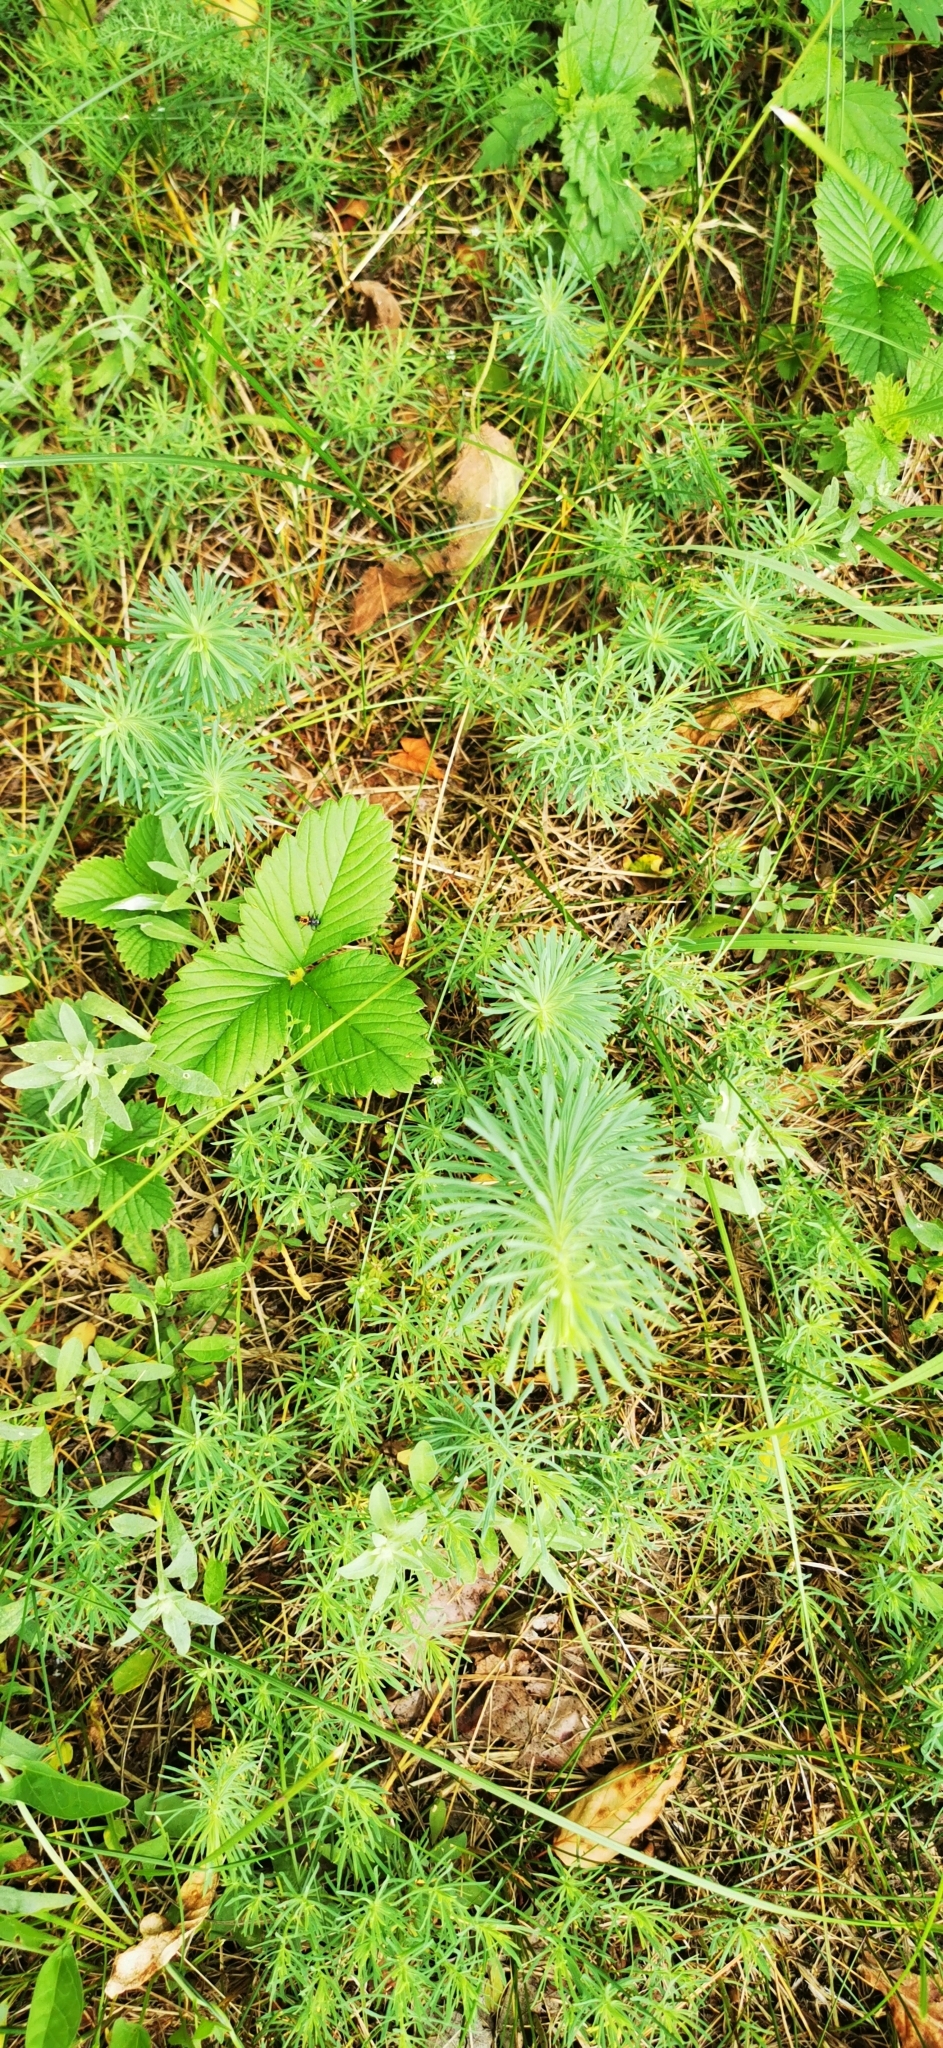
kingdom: Plantae
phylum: Tracheophyta
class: Magnoliopsida
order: Malpighiales
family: Euphorbiaceae
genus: Euphorbia
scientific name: Euphorbia cyparissias
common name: Cypress spurge
